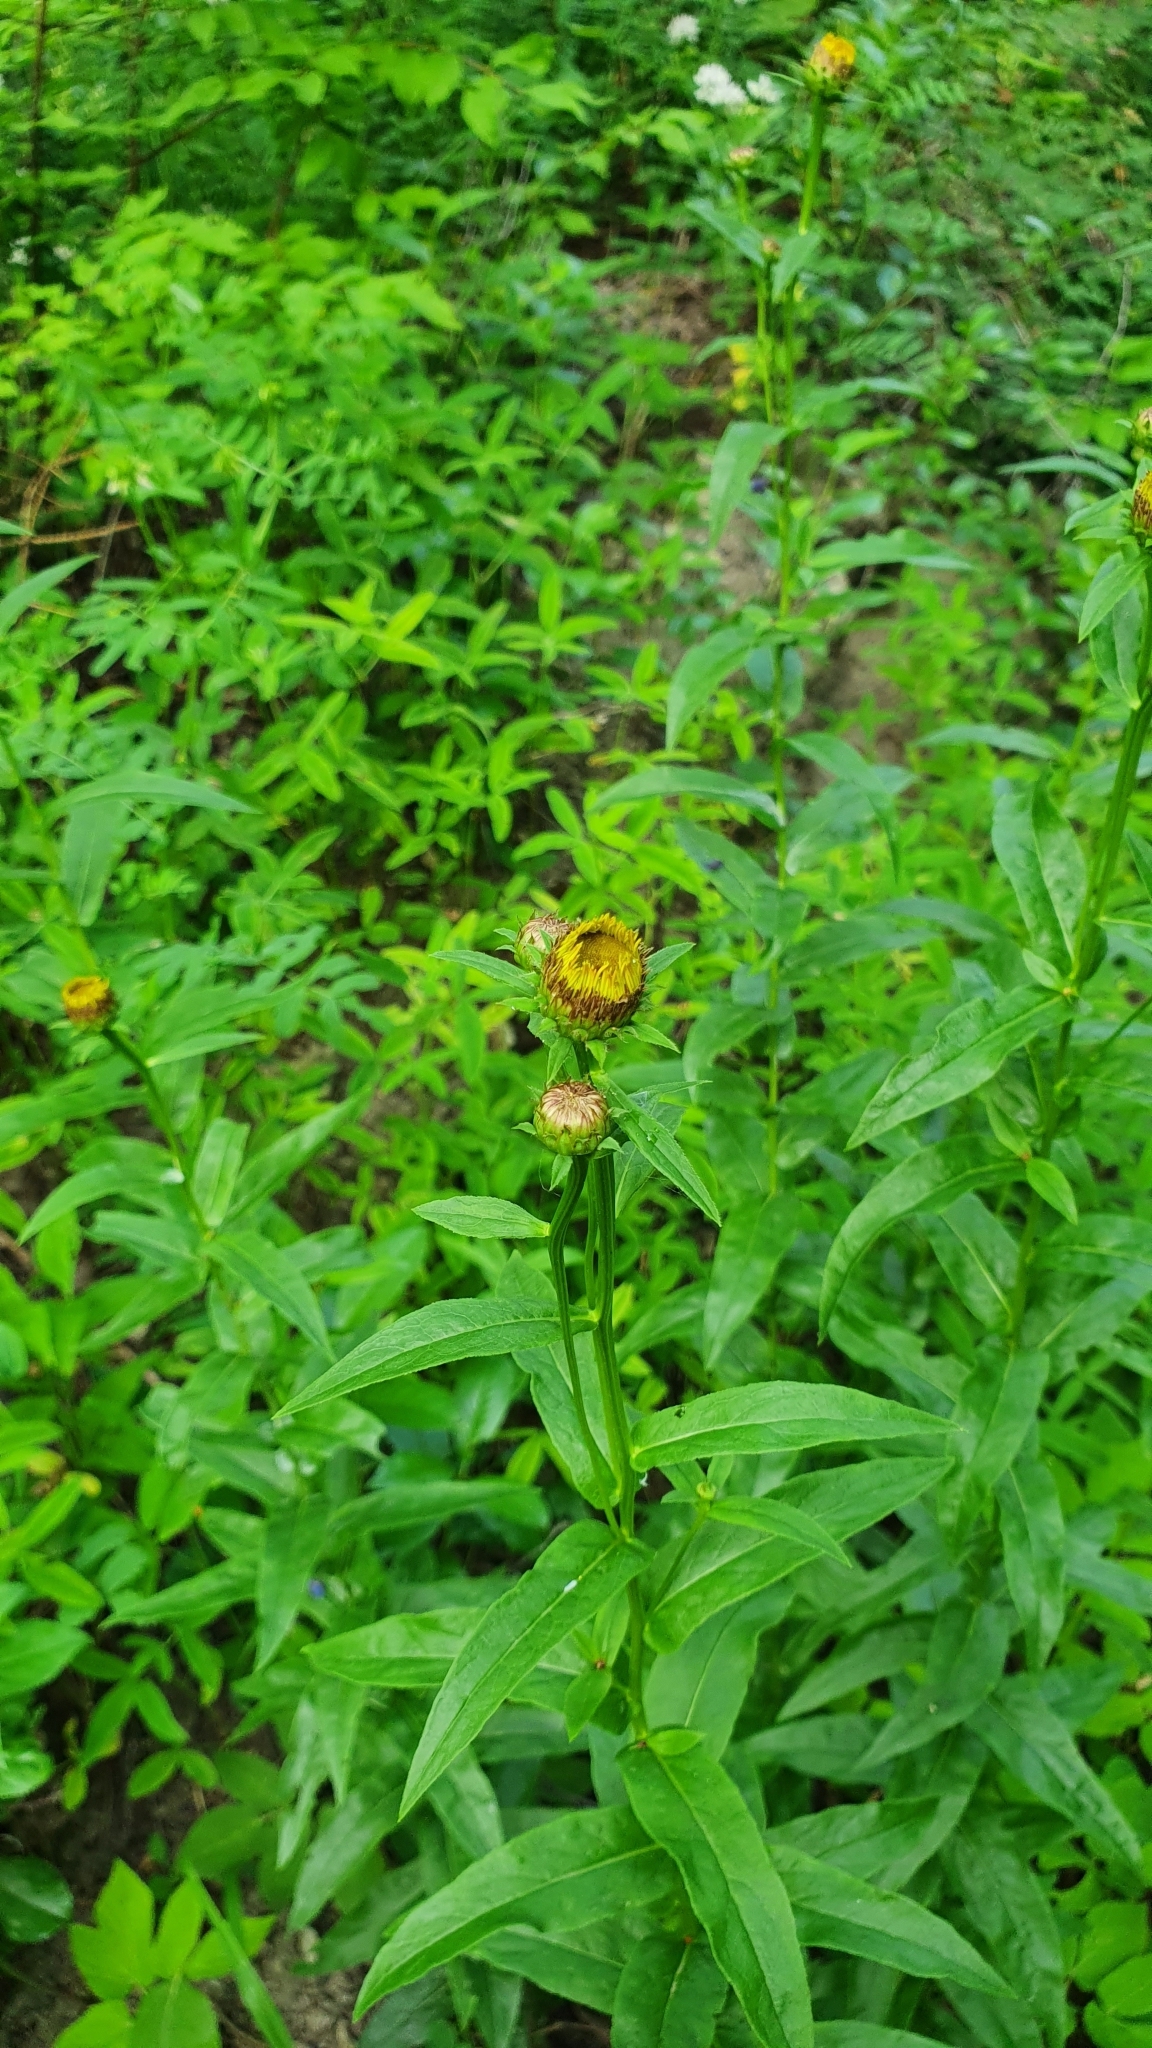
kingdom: Plantae
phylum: Tracheophyta
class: Magnoliopsida
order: Asterales
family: Asteraceae
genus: Pentanema
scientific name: Pentanema salicinum
